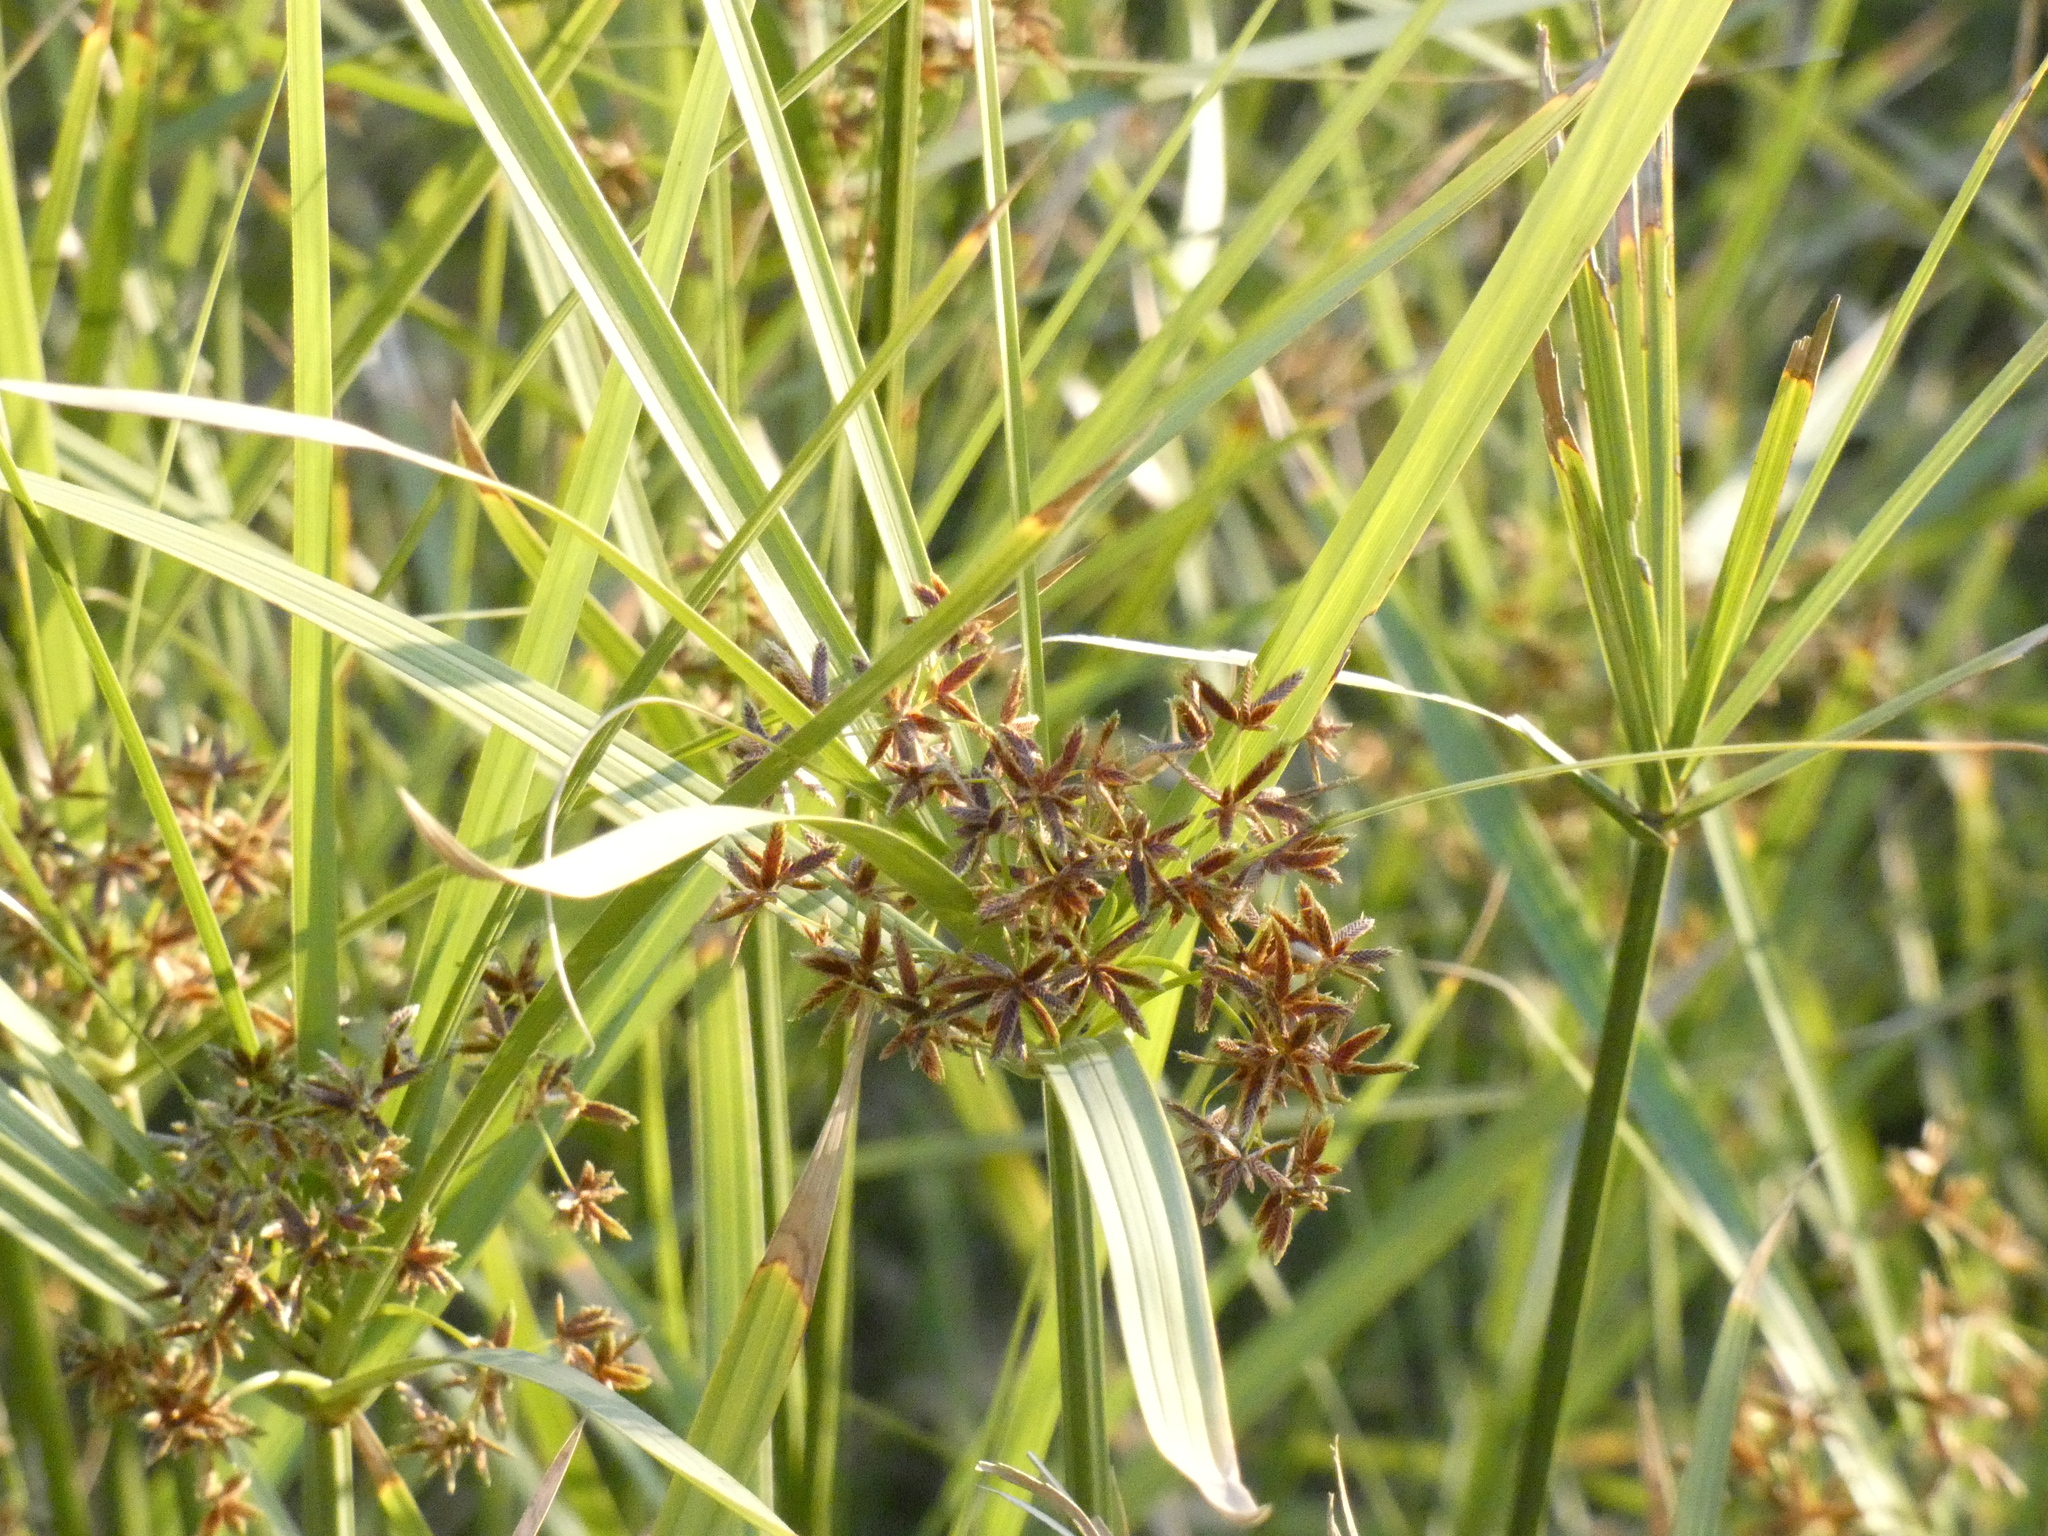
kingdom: Plantae
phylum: Tracheophyta
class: Liliopsida
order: Poales
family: Cyperaceae
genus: Cyperus
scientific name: Cyperus sexangularis
